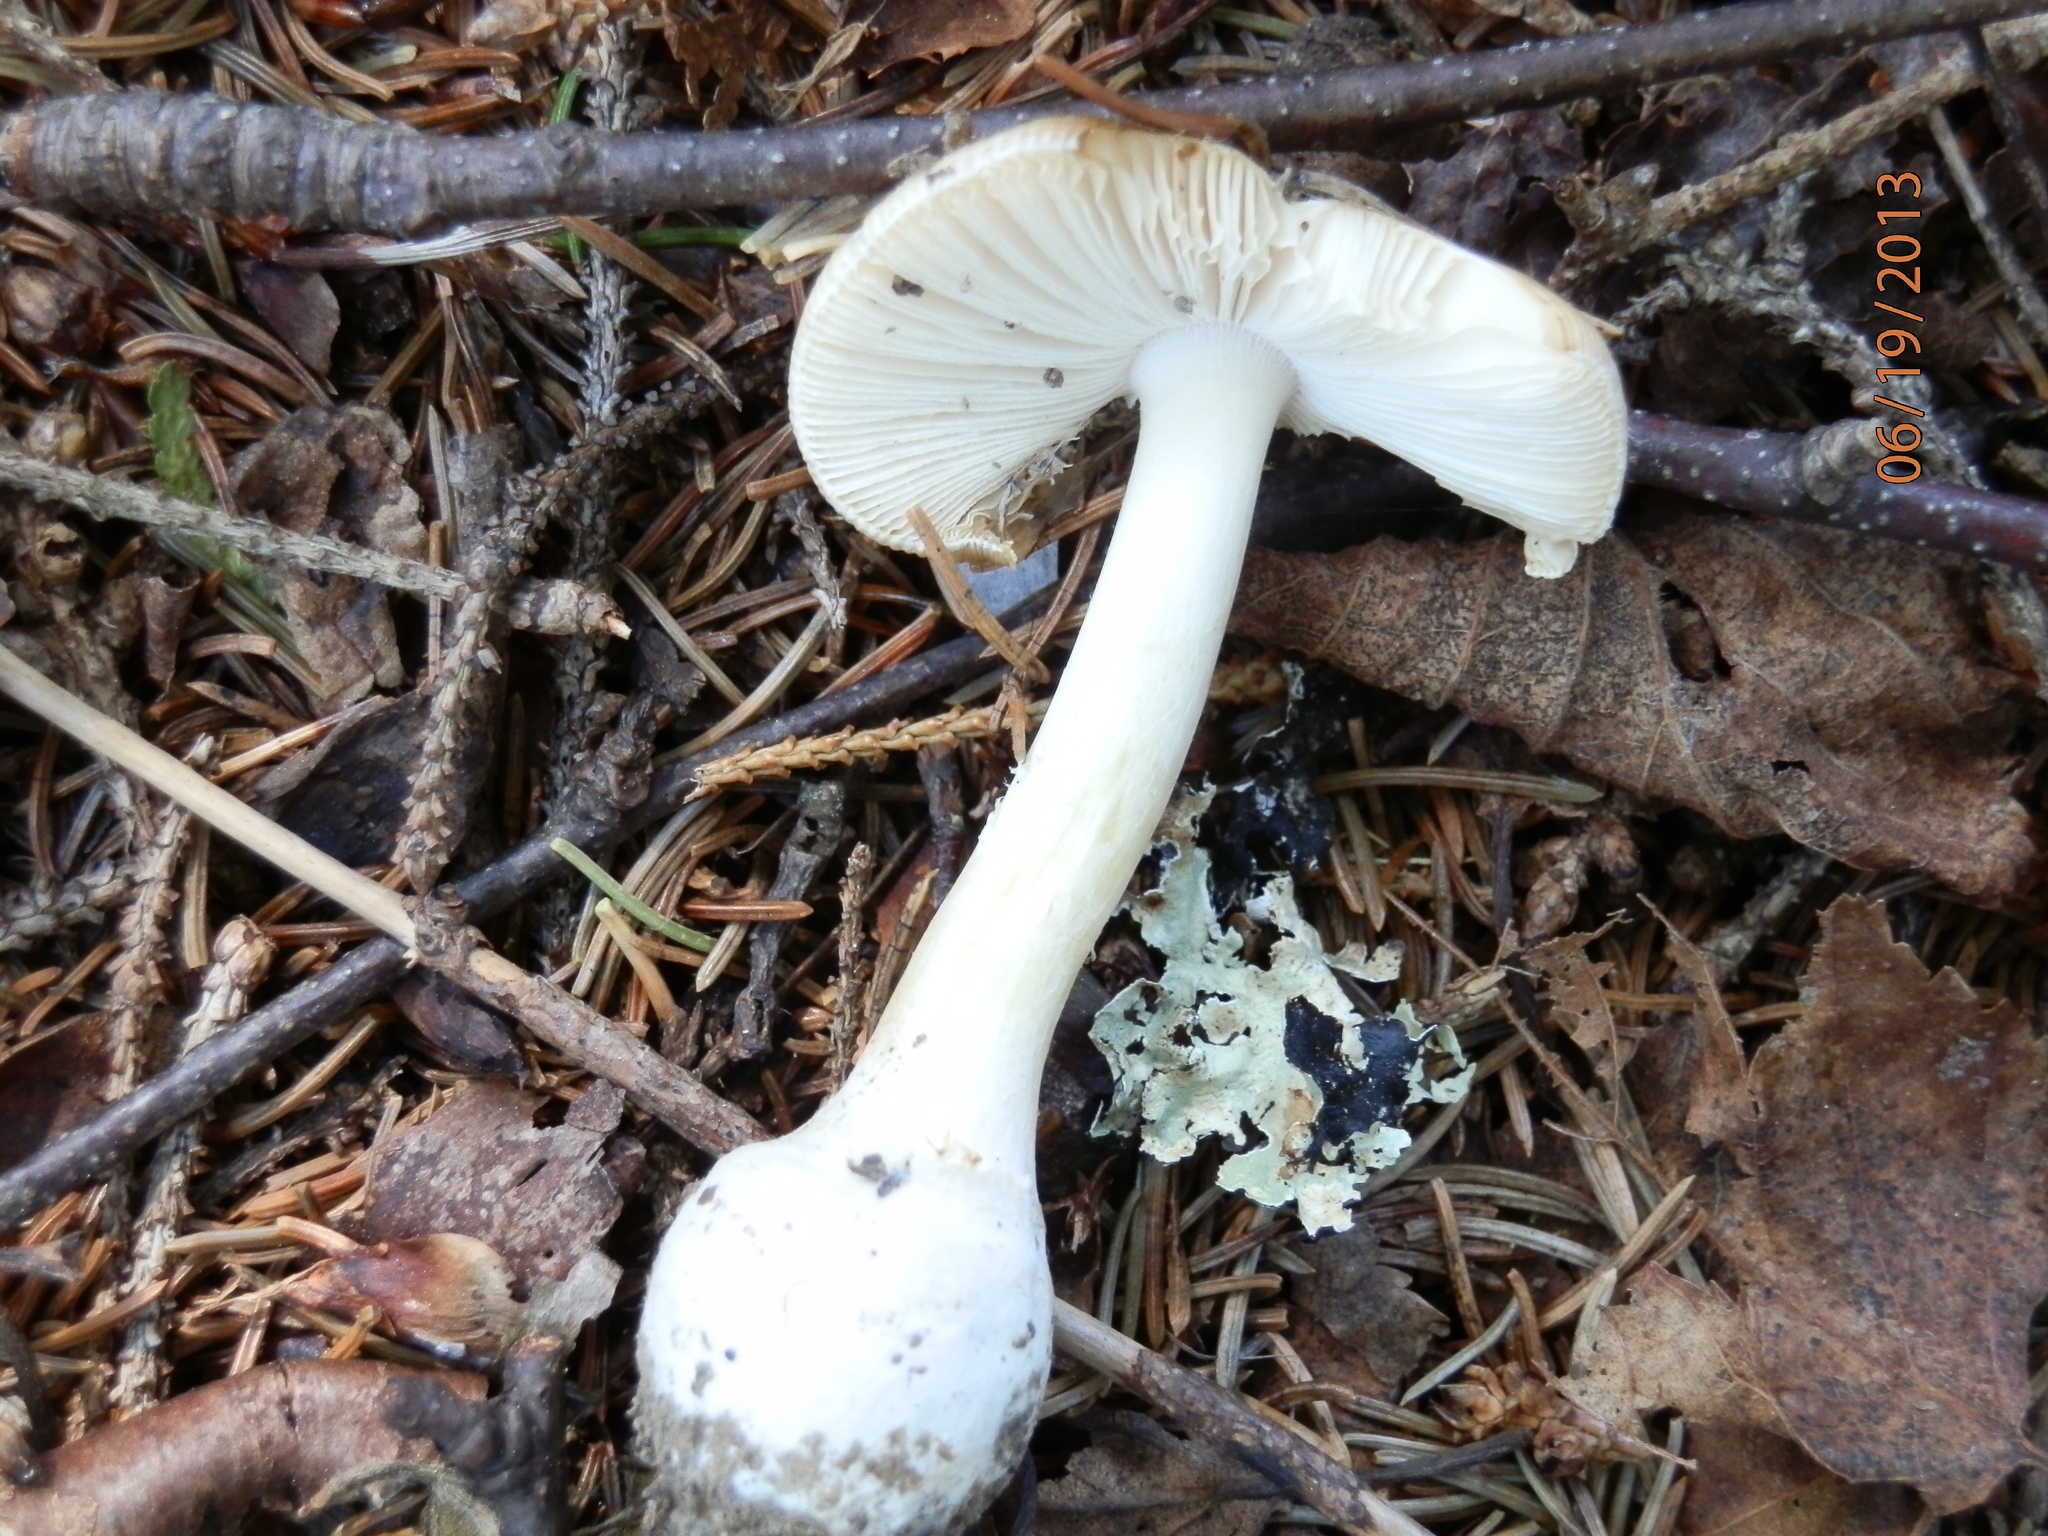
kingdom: Fungi
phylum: Basidiomycota
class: Agaricomycetes
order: Agaricales
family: Amanitaceae
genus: Amanita
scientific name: Amanita russuloides
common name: Russula-like amanita
